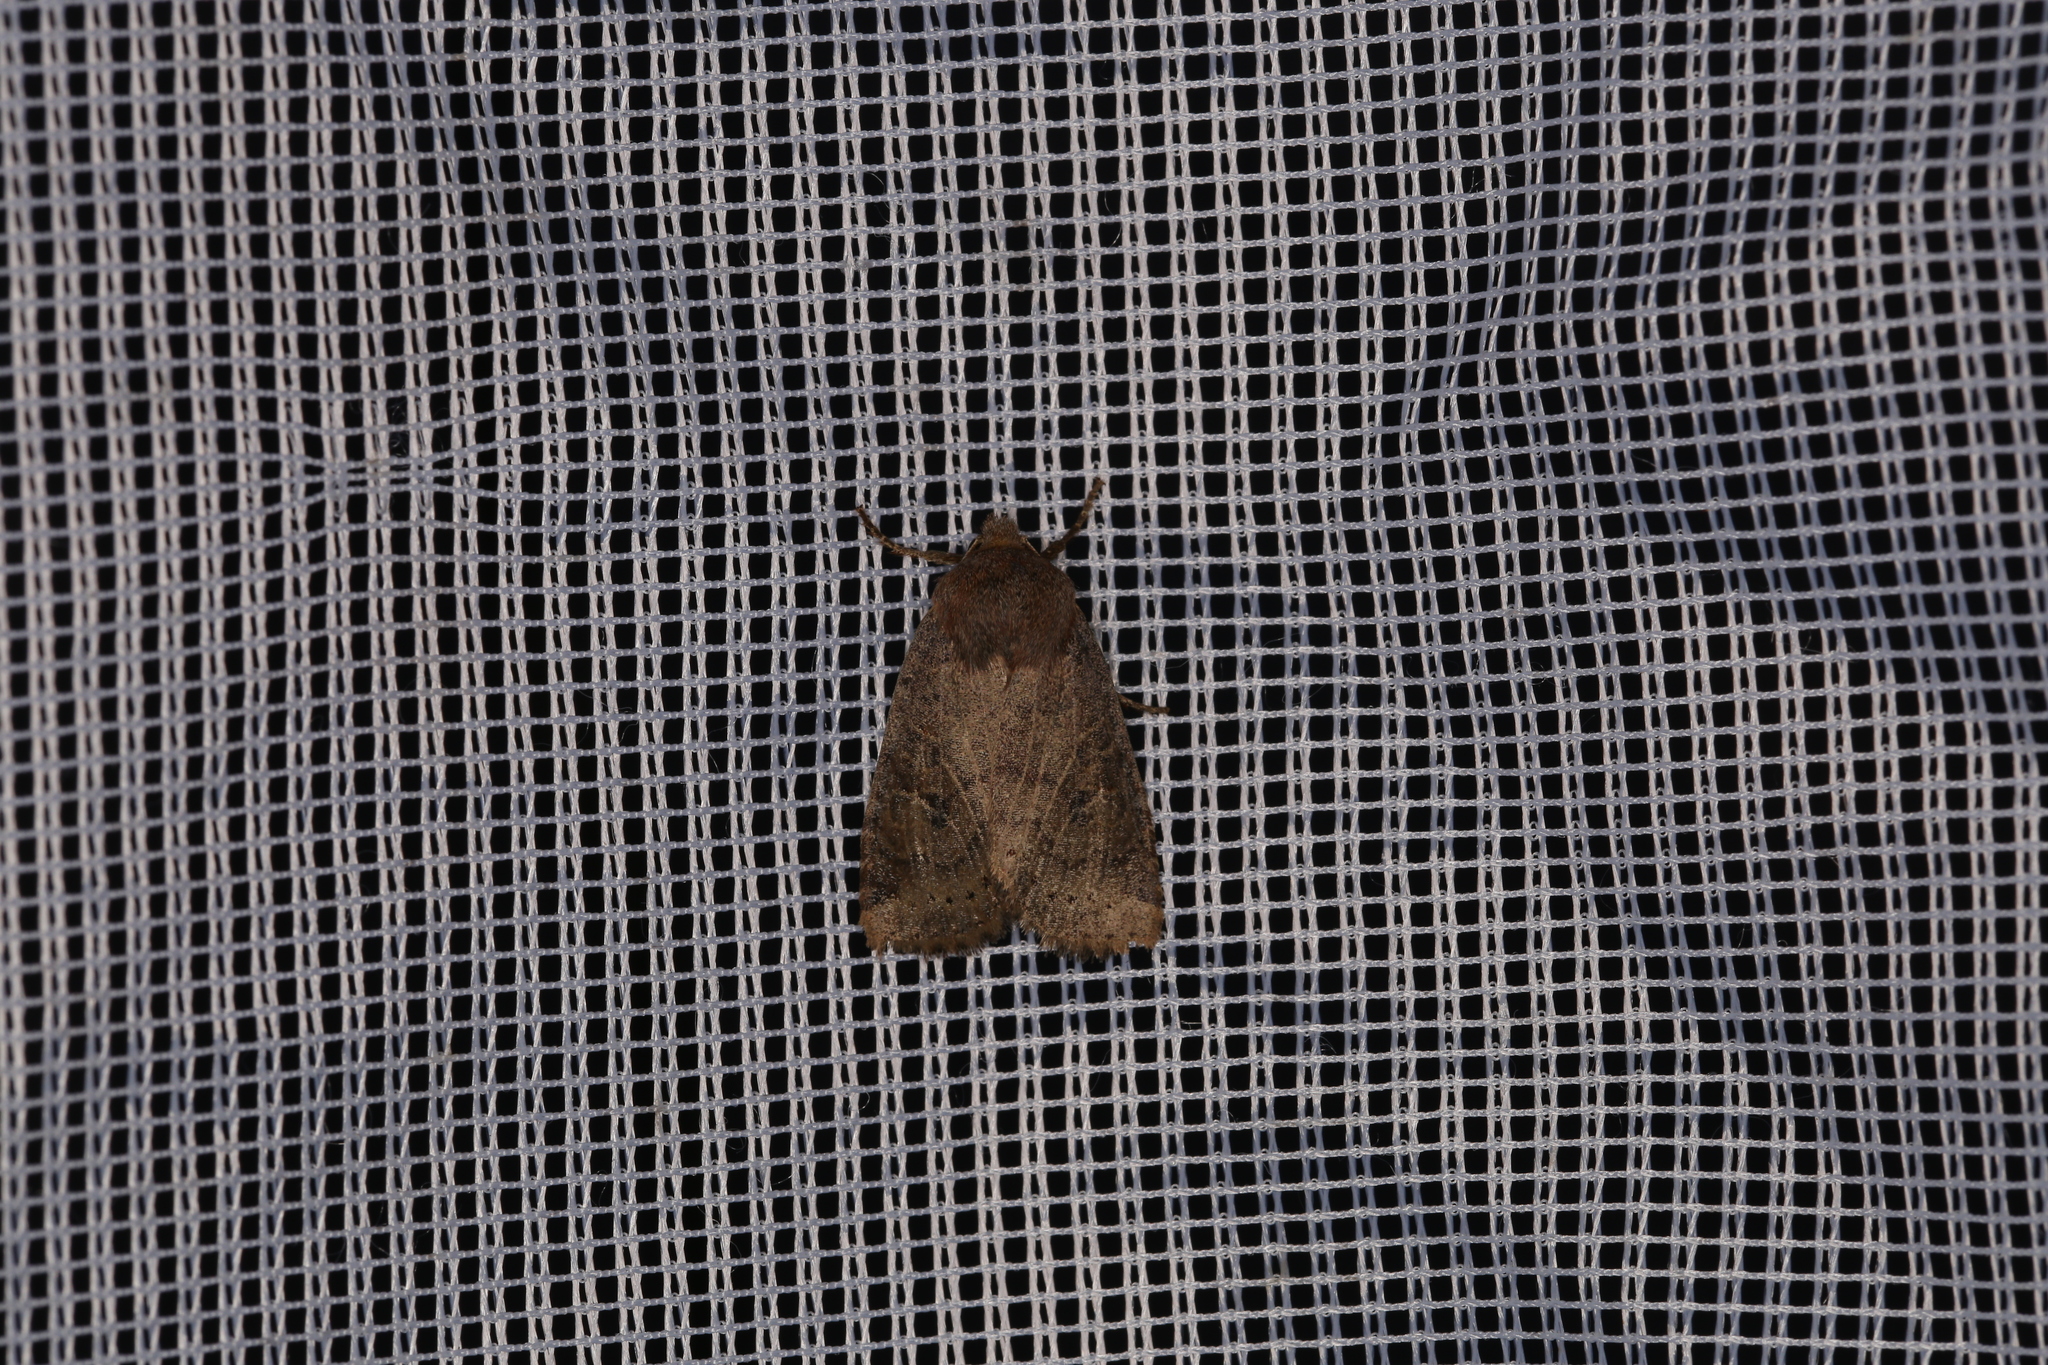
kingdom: Animalia
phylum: Arthropoda
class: Insecta
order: Lepidoptera
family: Noctuidae
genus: Conistra
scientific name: Conistra vaccinii
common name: Chestnut
